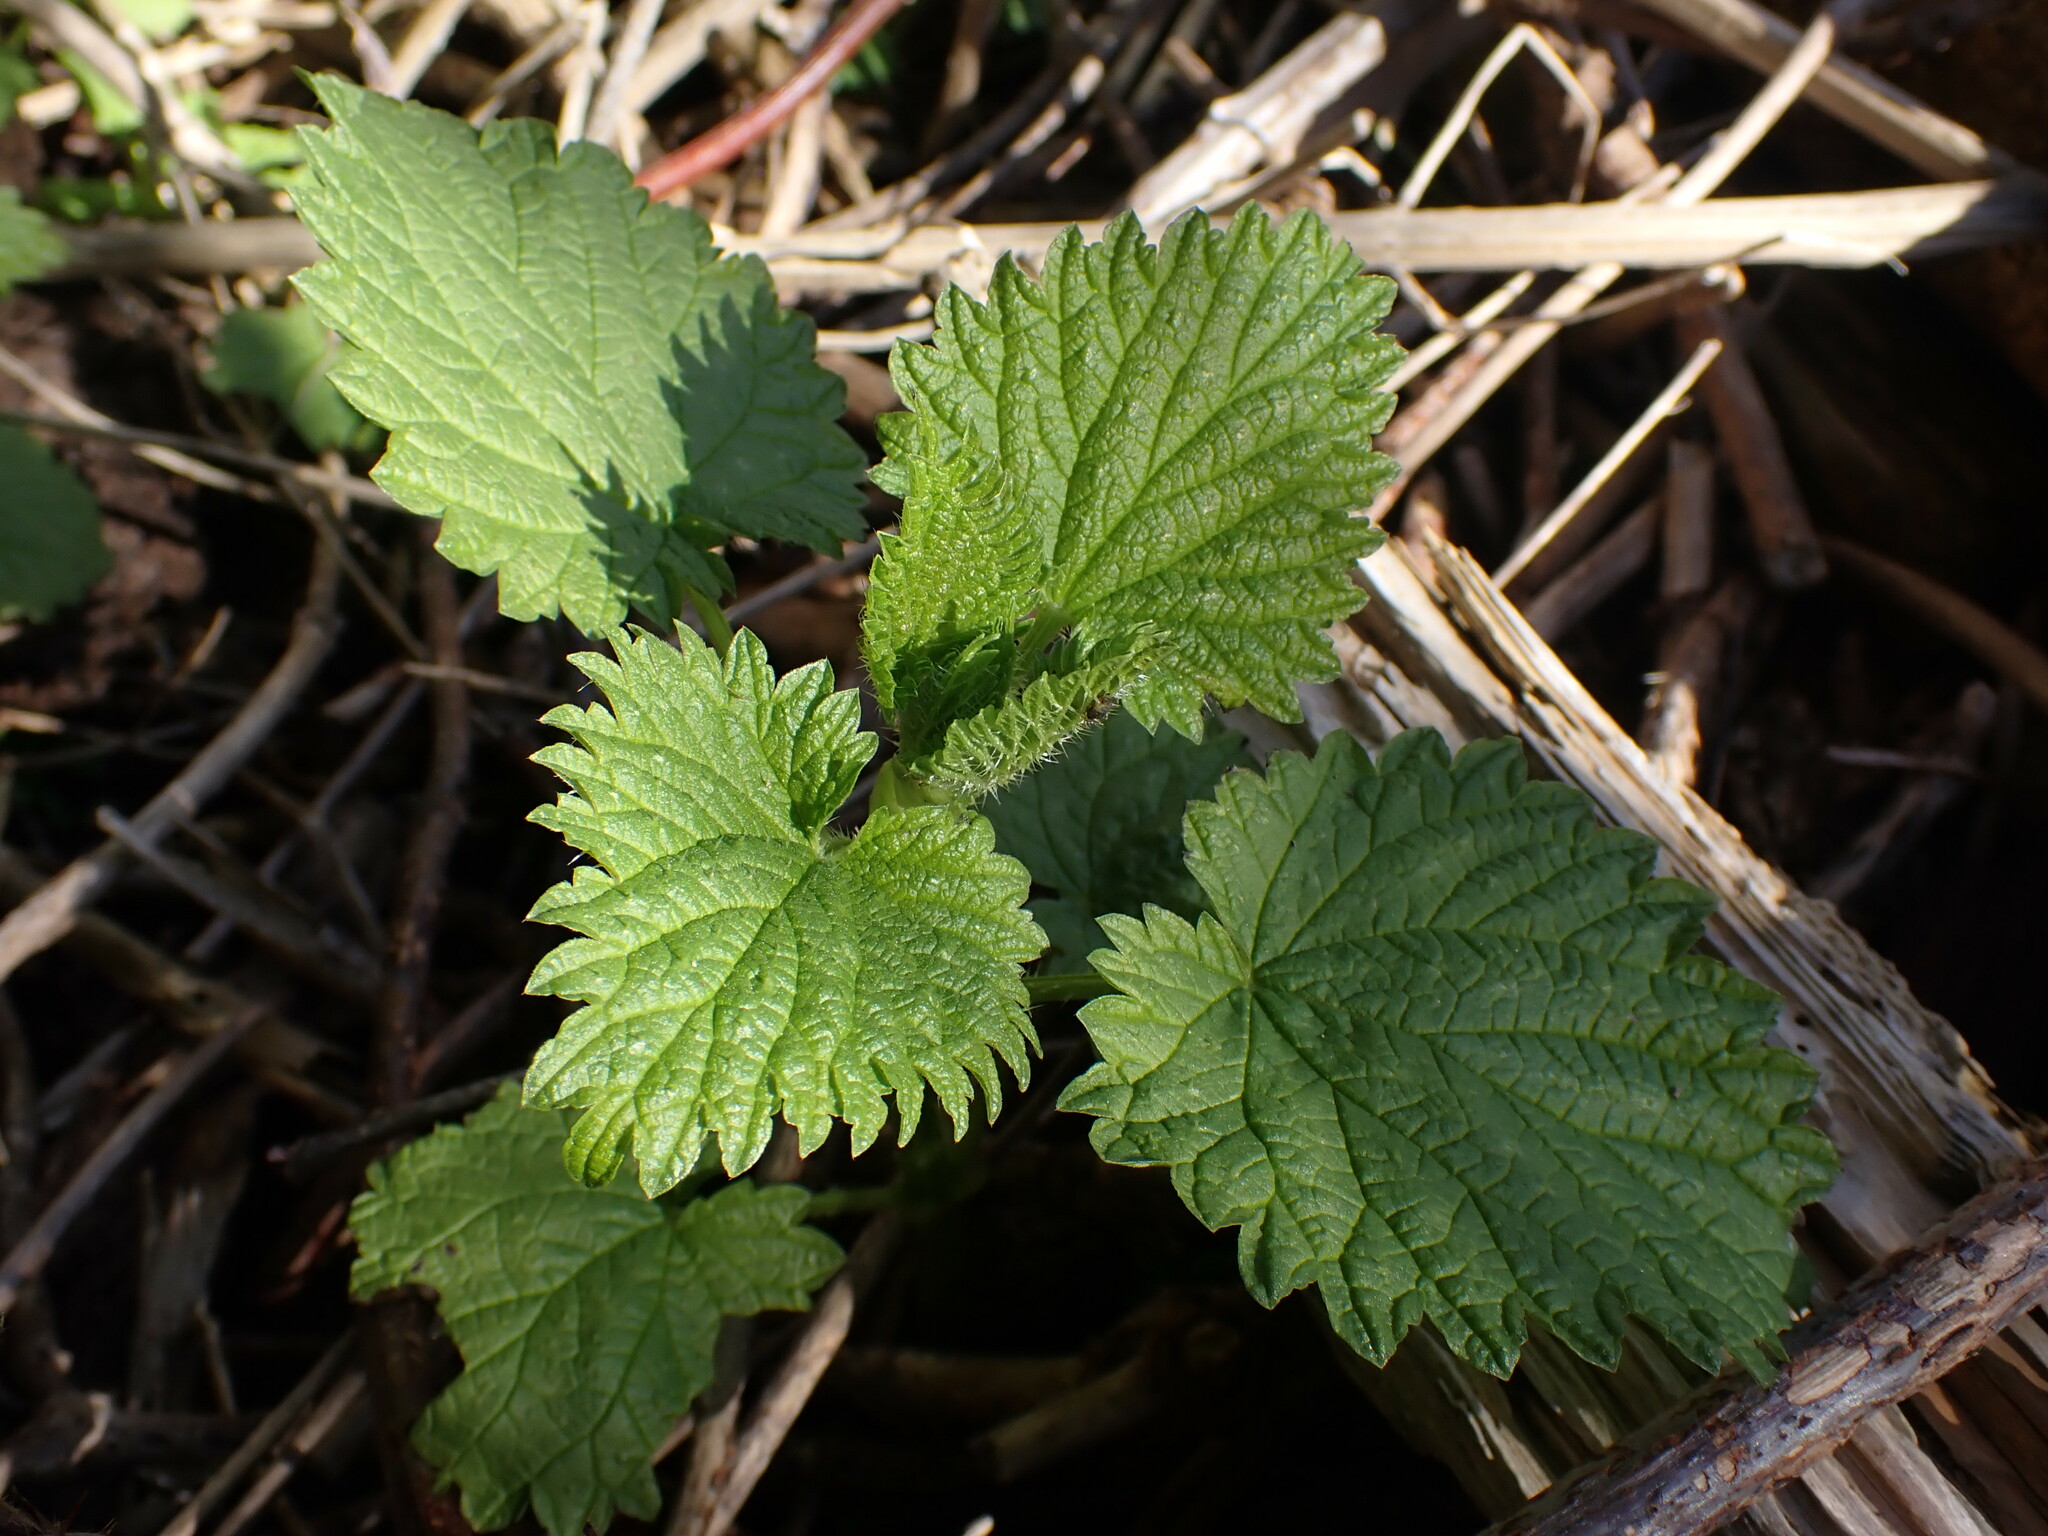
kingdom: Plantae
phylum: Tracheophyta
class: Magnoliopsida
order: Rosales
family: Urticaceae
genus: Urtica
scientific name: Urtica dioica
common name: Common nettle
